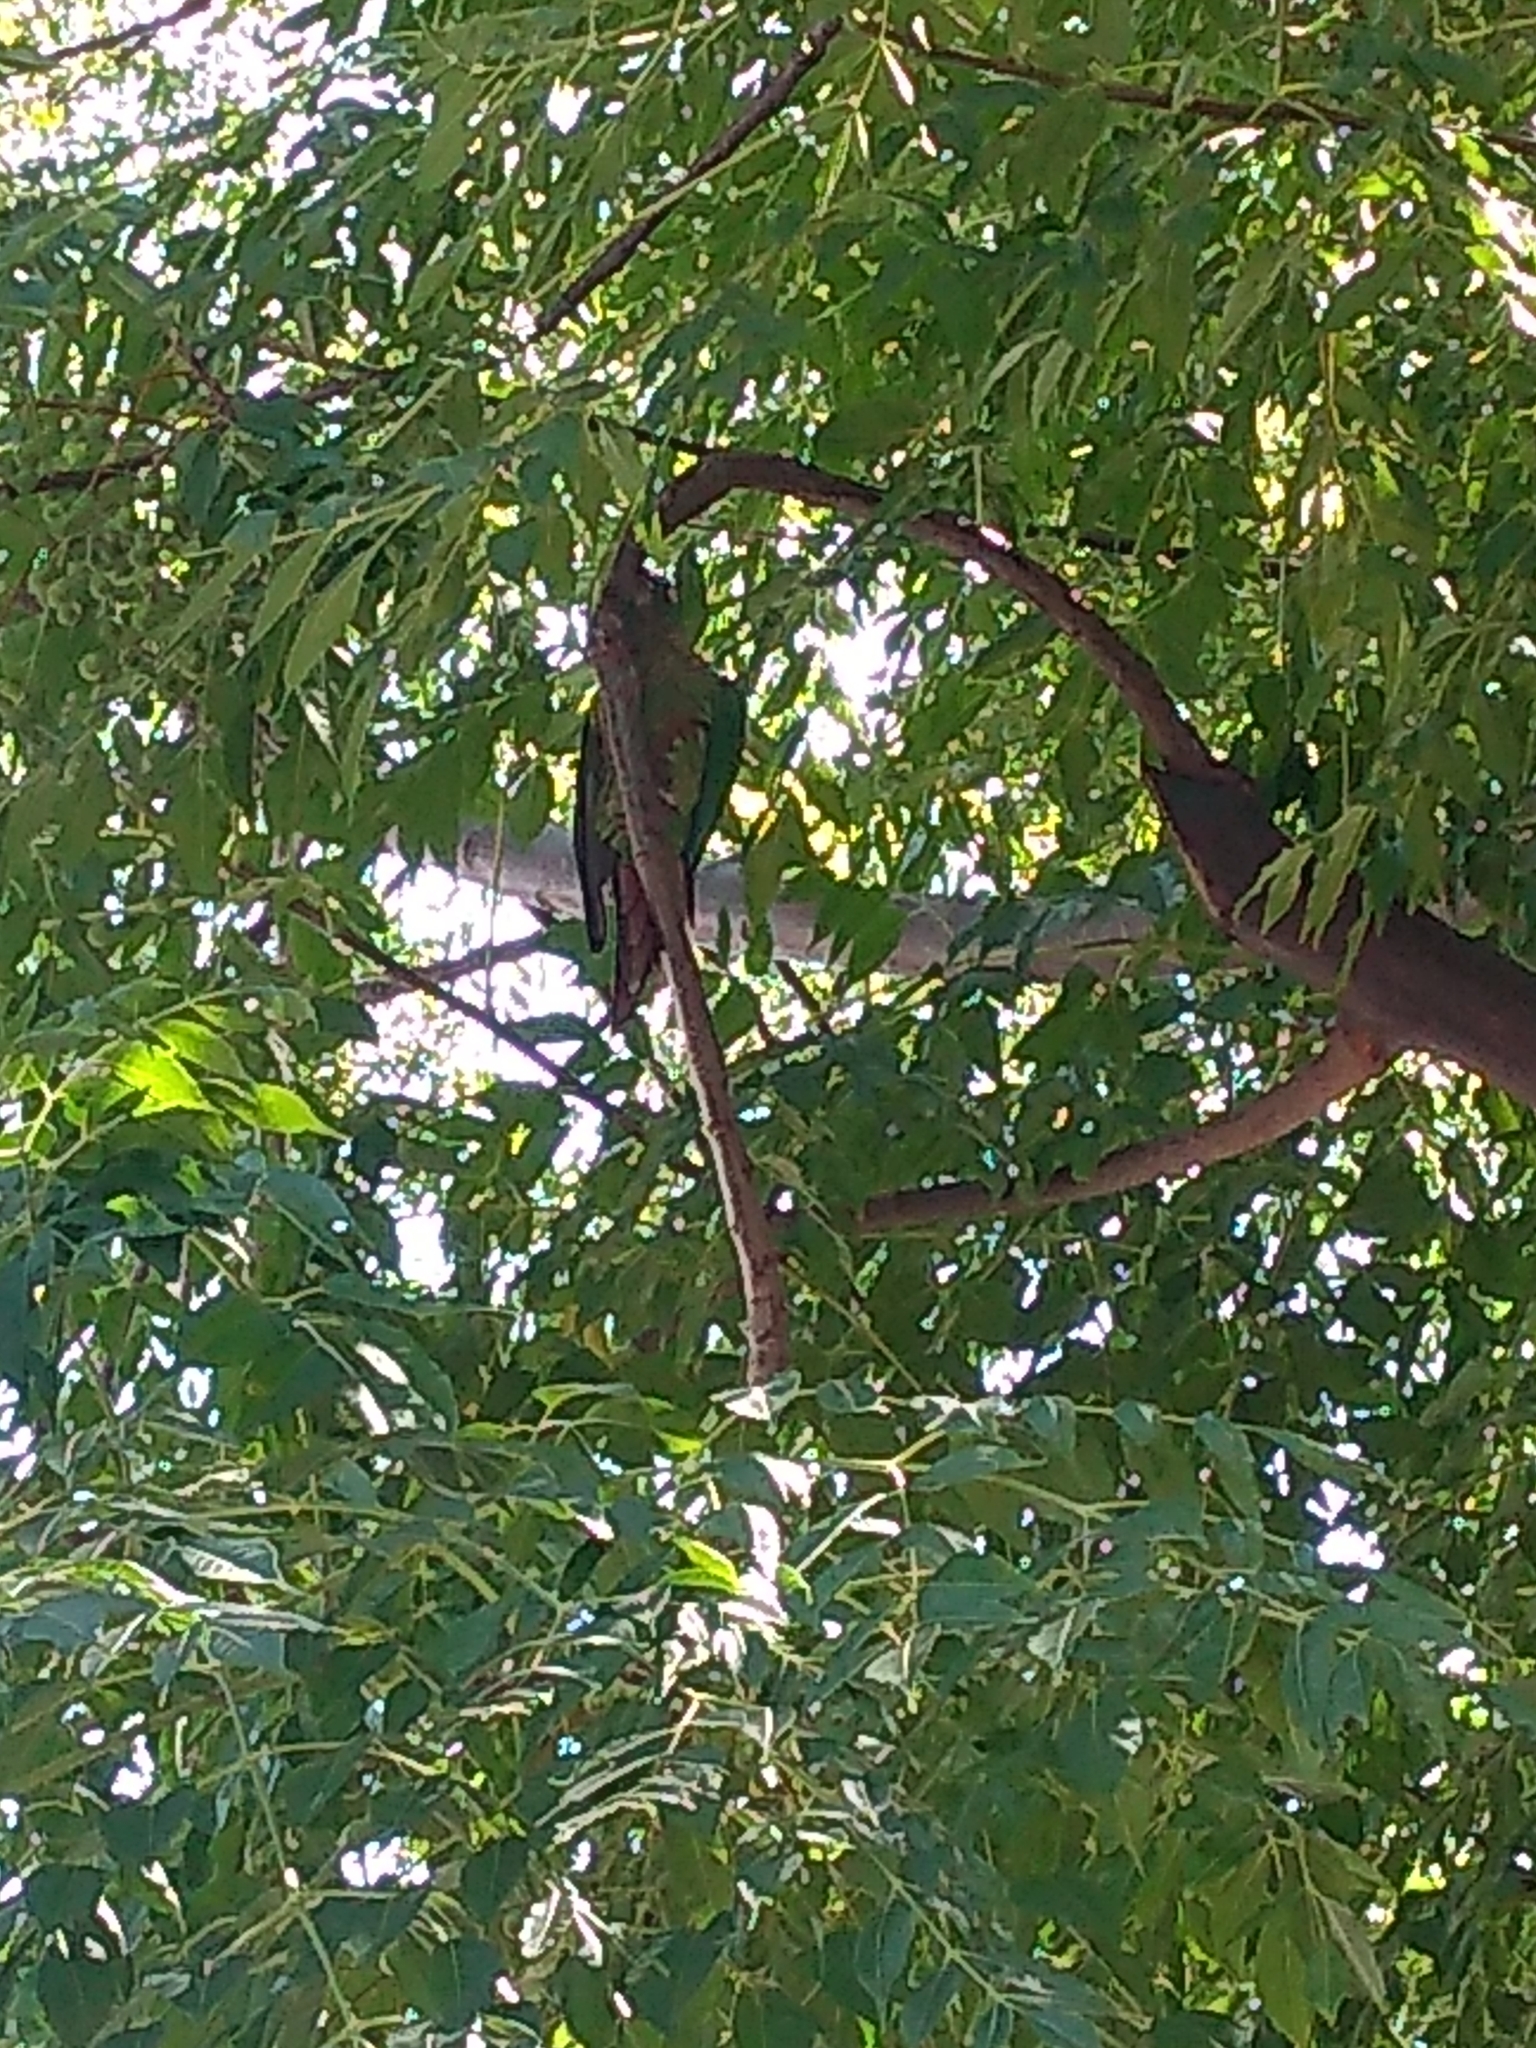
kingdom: Animalia
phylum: Chordata
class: Aves
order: Psittaciformes
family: Psittacidae
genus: Pyrrhura
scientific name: Pyrrhura frontalis
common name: Maroon-bellied parakeet
